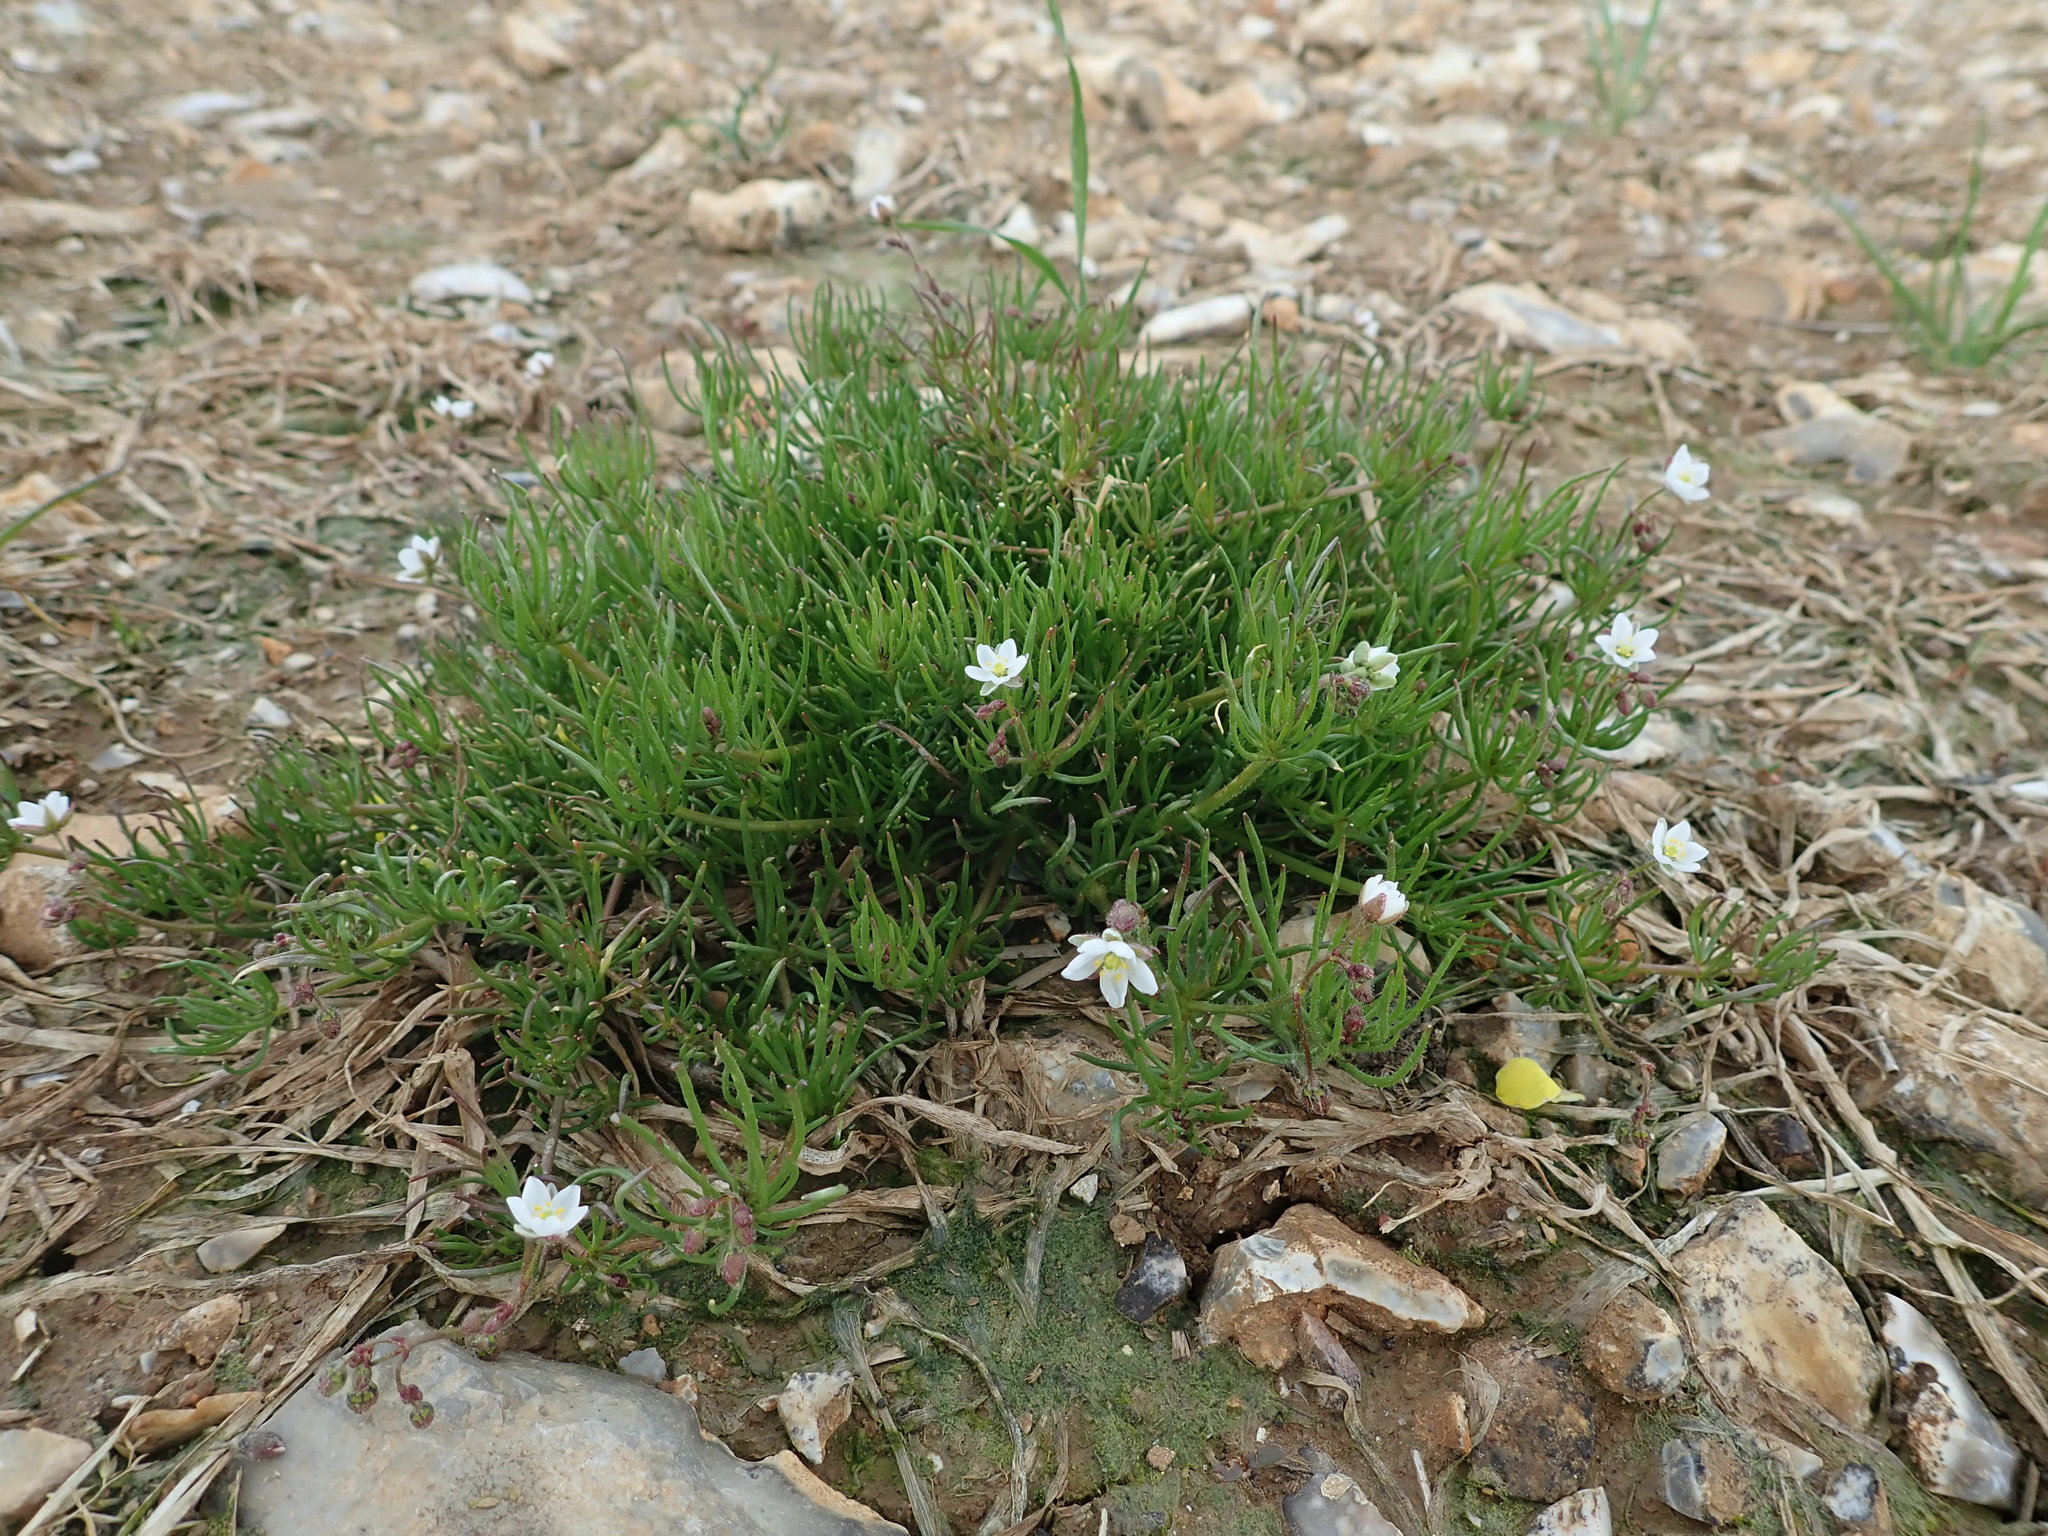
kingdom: Plantae
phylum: Tracheophyta
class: Magnoliopsida
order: Caryophyllales
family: Caryophyllaceae
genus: Spergula
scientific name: Spergula arvensis
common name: Corn spurrey
